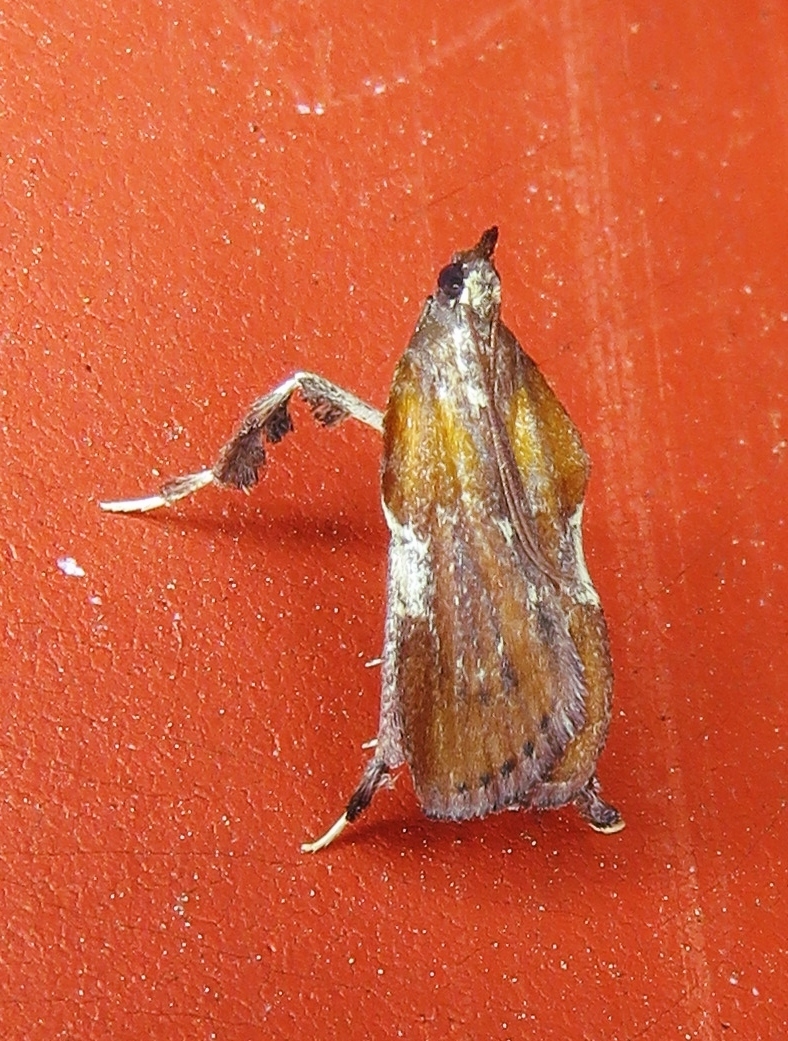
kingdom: Animalia
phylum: Arthropoda
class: Insecta
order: Lepidoptera
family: Pyralidae
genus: Galasa
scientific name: Galasa nigrinodis
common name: Boxwood leaftier moth
